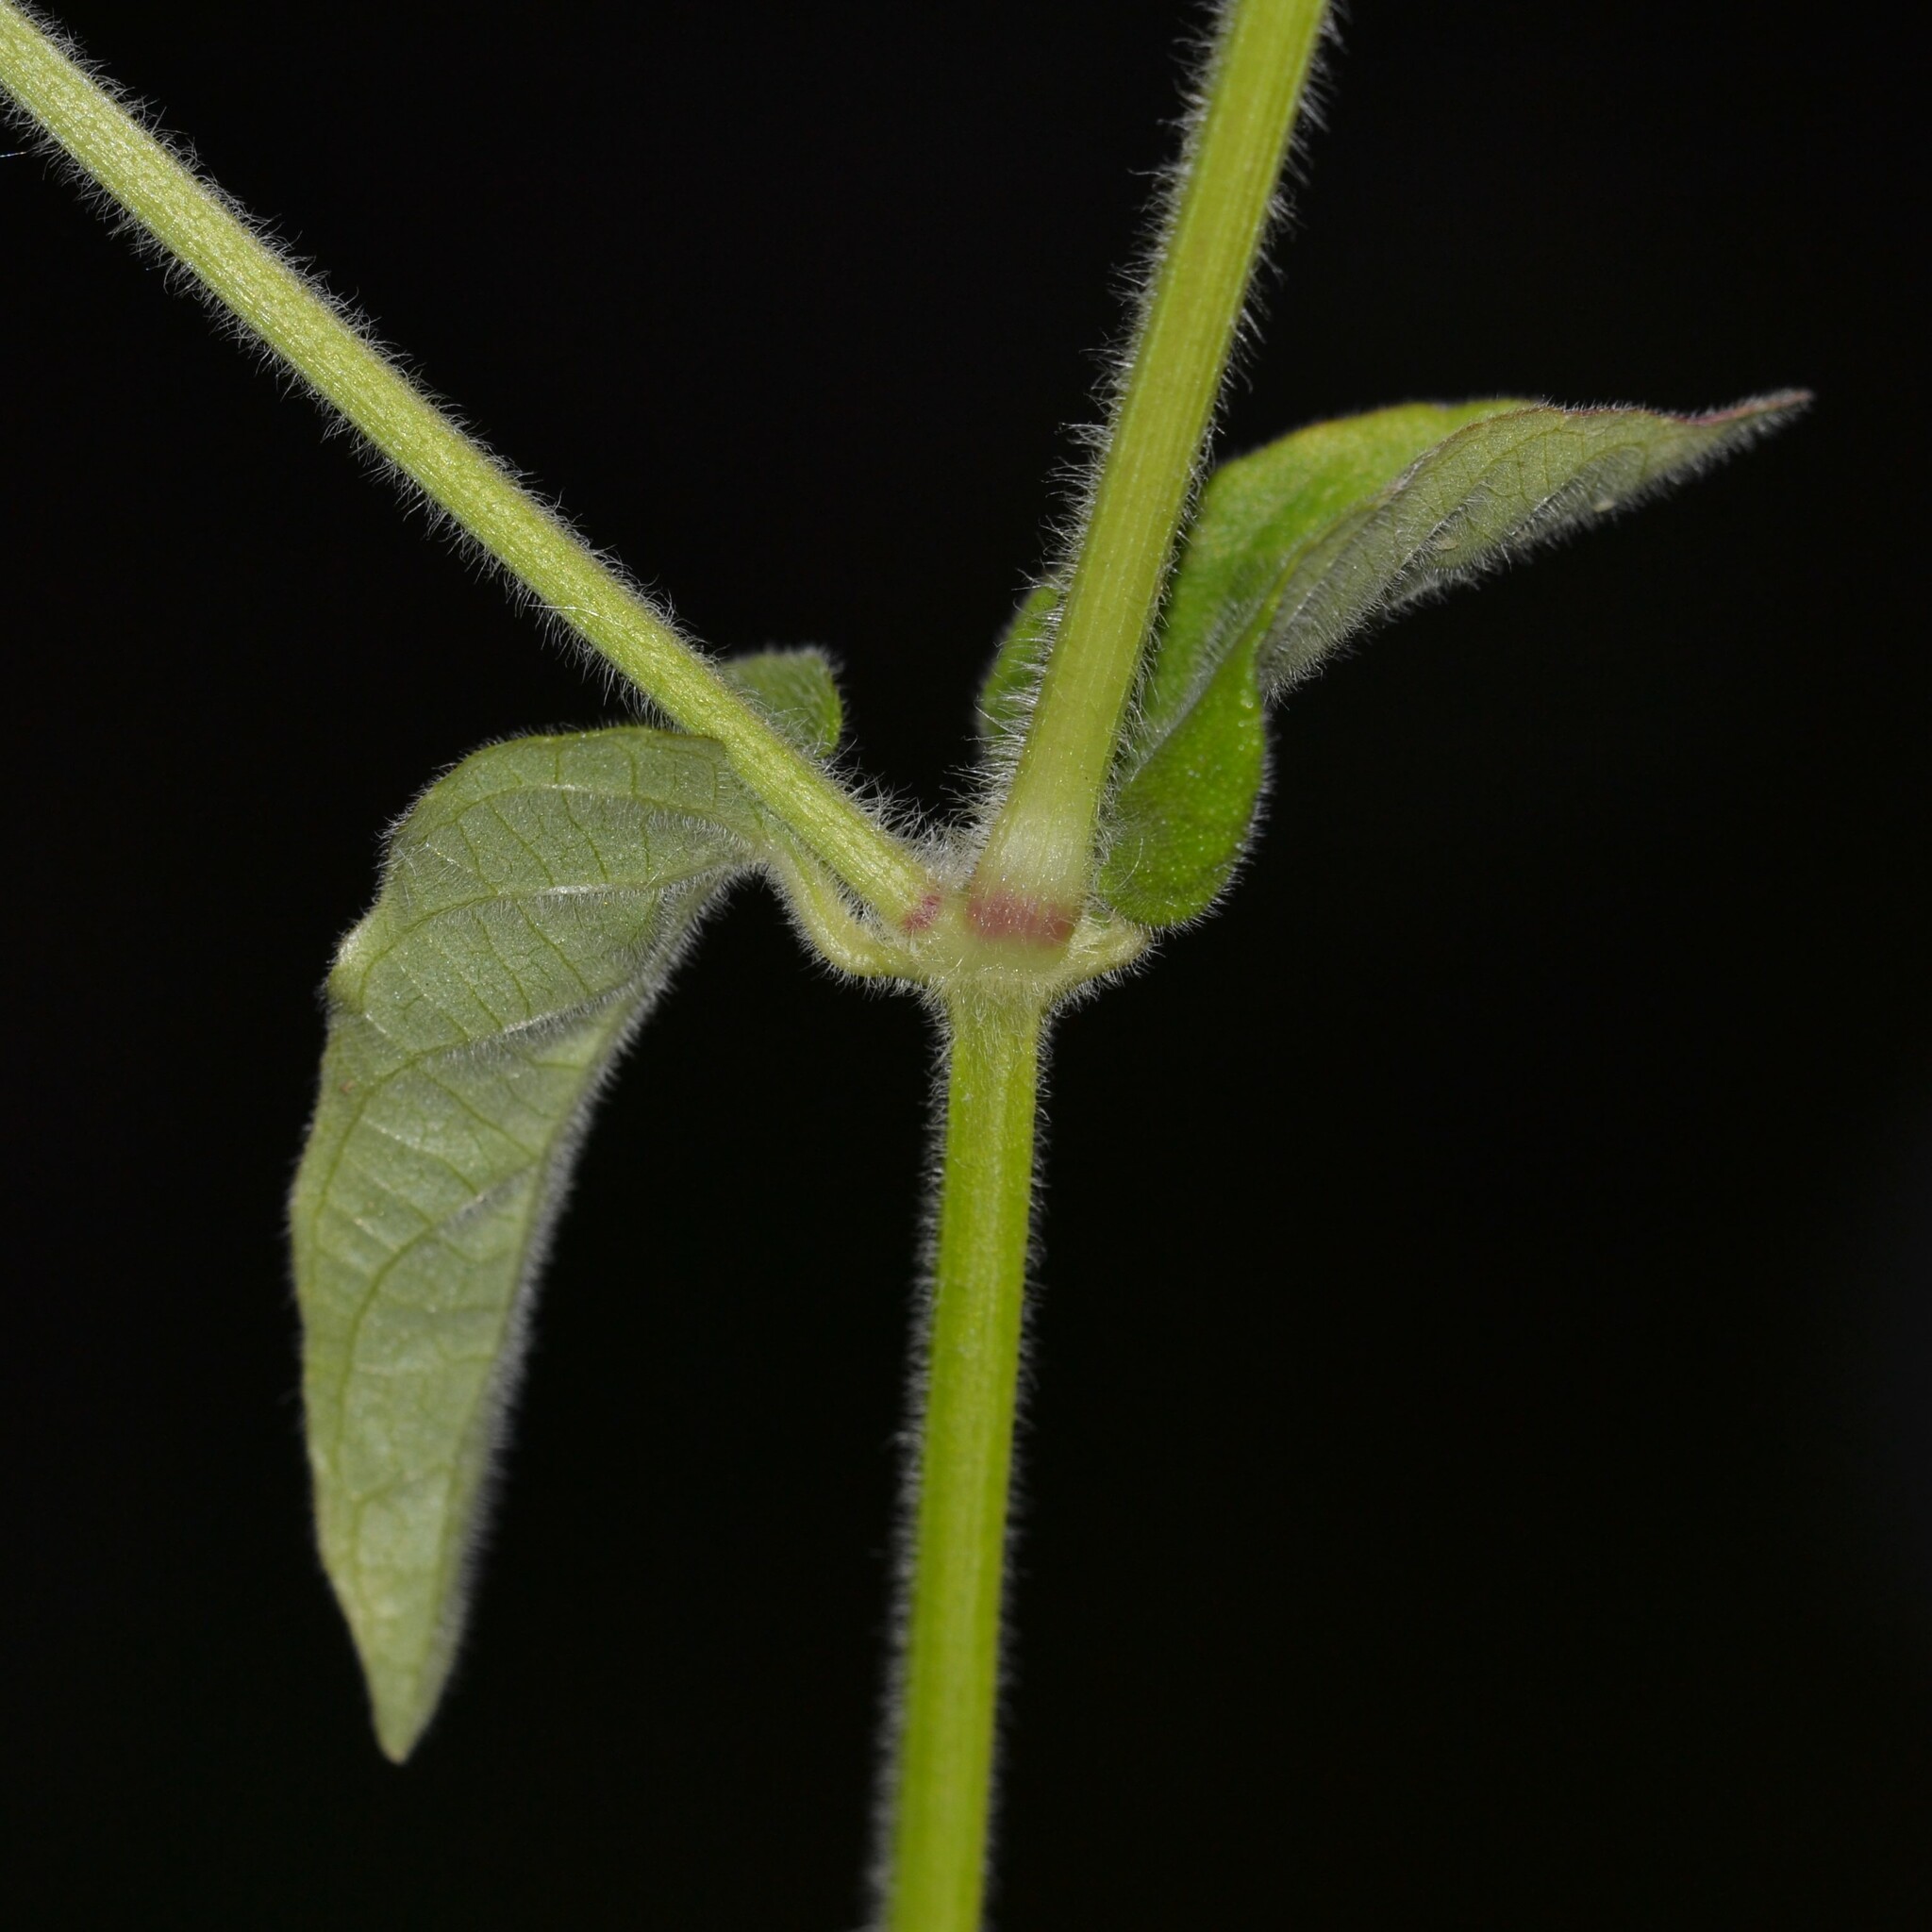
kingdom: Plantae
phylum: Tracheophyta
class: Magnoliopsida
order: Lamiales
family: Acanthaceae
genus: Asystasia
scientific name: Asystasia intrusa
